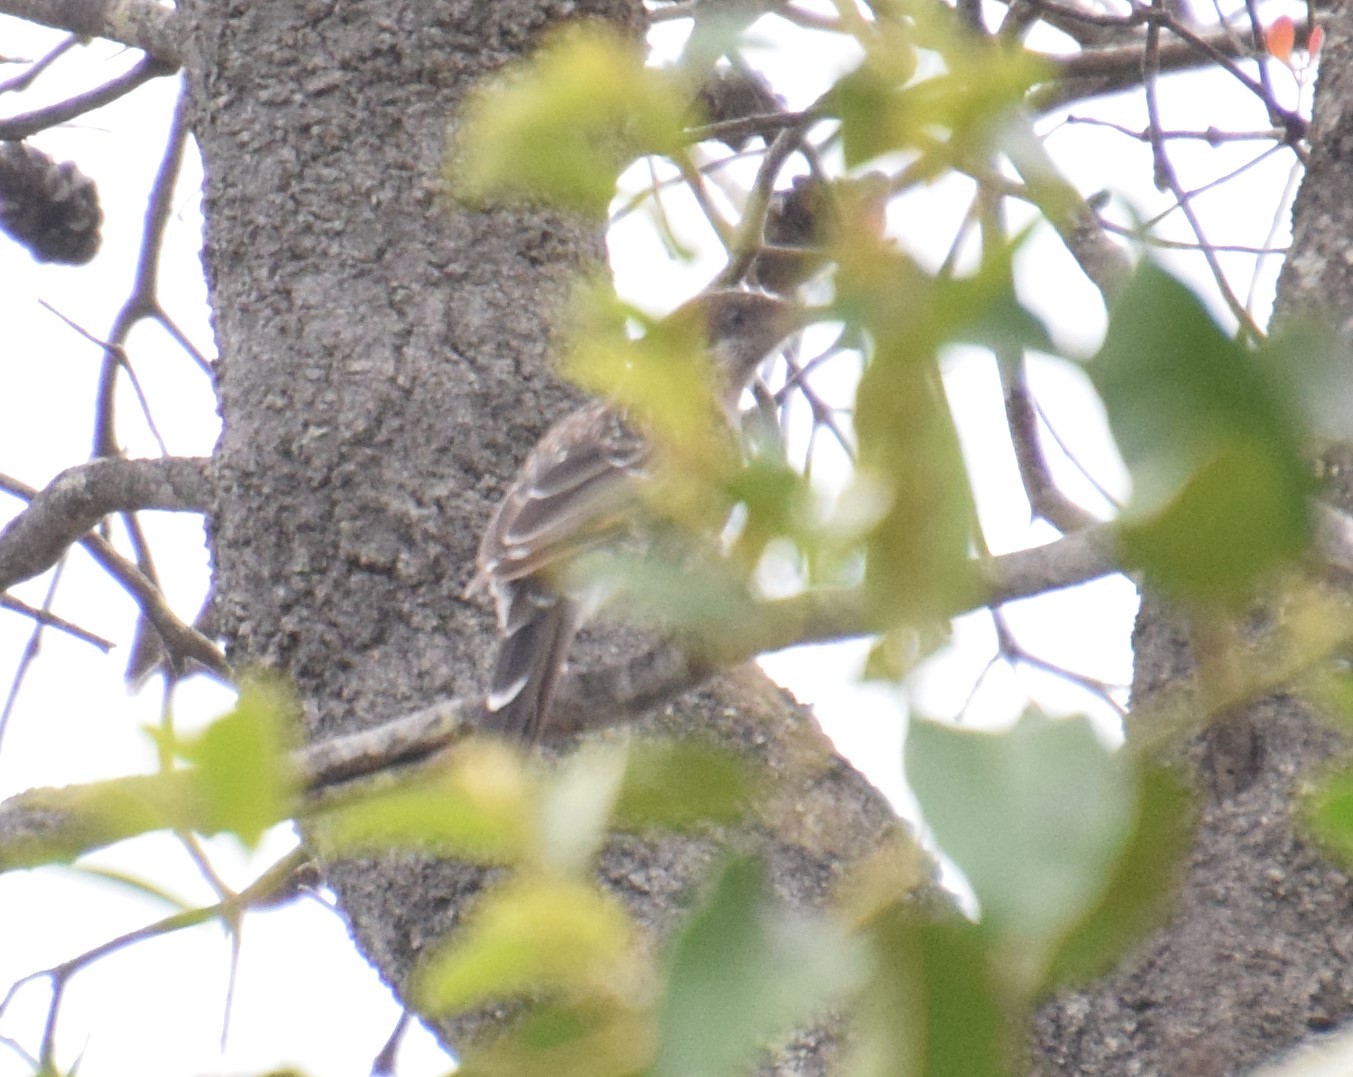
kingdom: Animalia
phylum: Chordata
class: Aves
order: Passeriformes
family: Meliphagidae
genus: Anthochaera
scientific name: Anthochaera chrysoptera
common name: Little wattlebird
